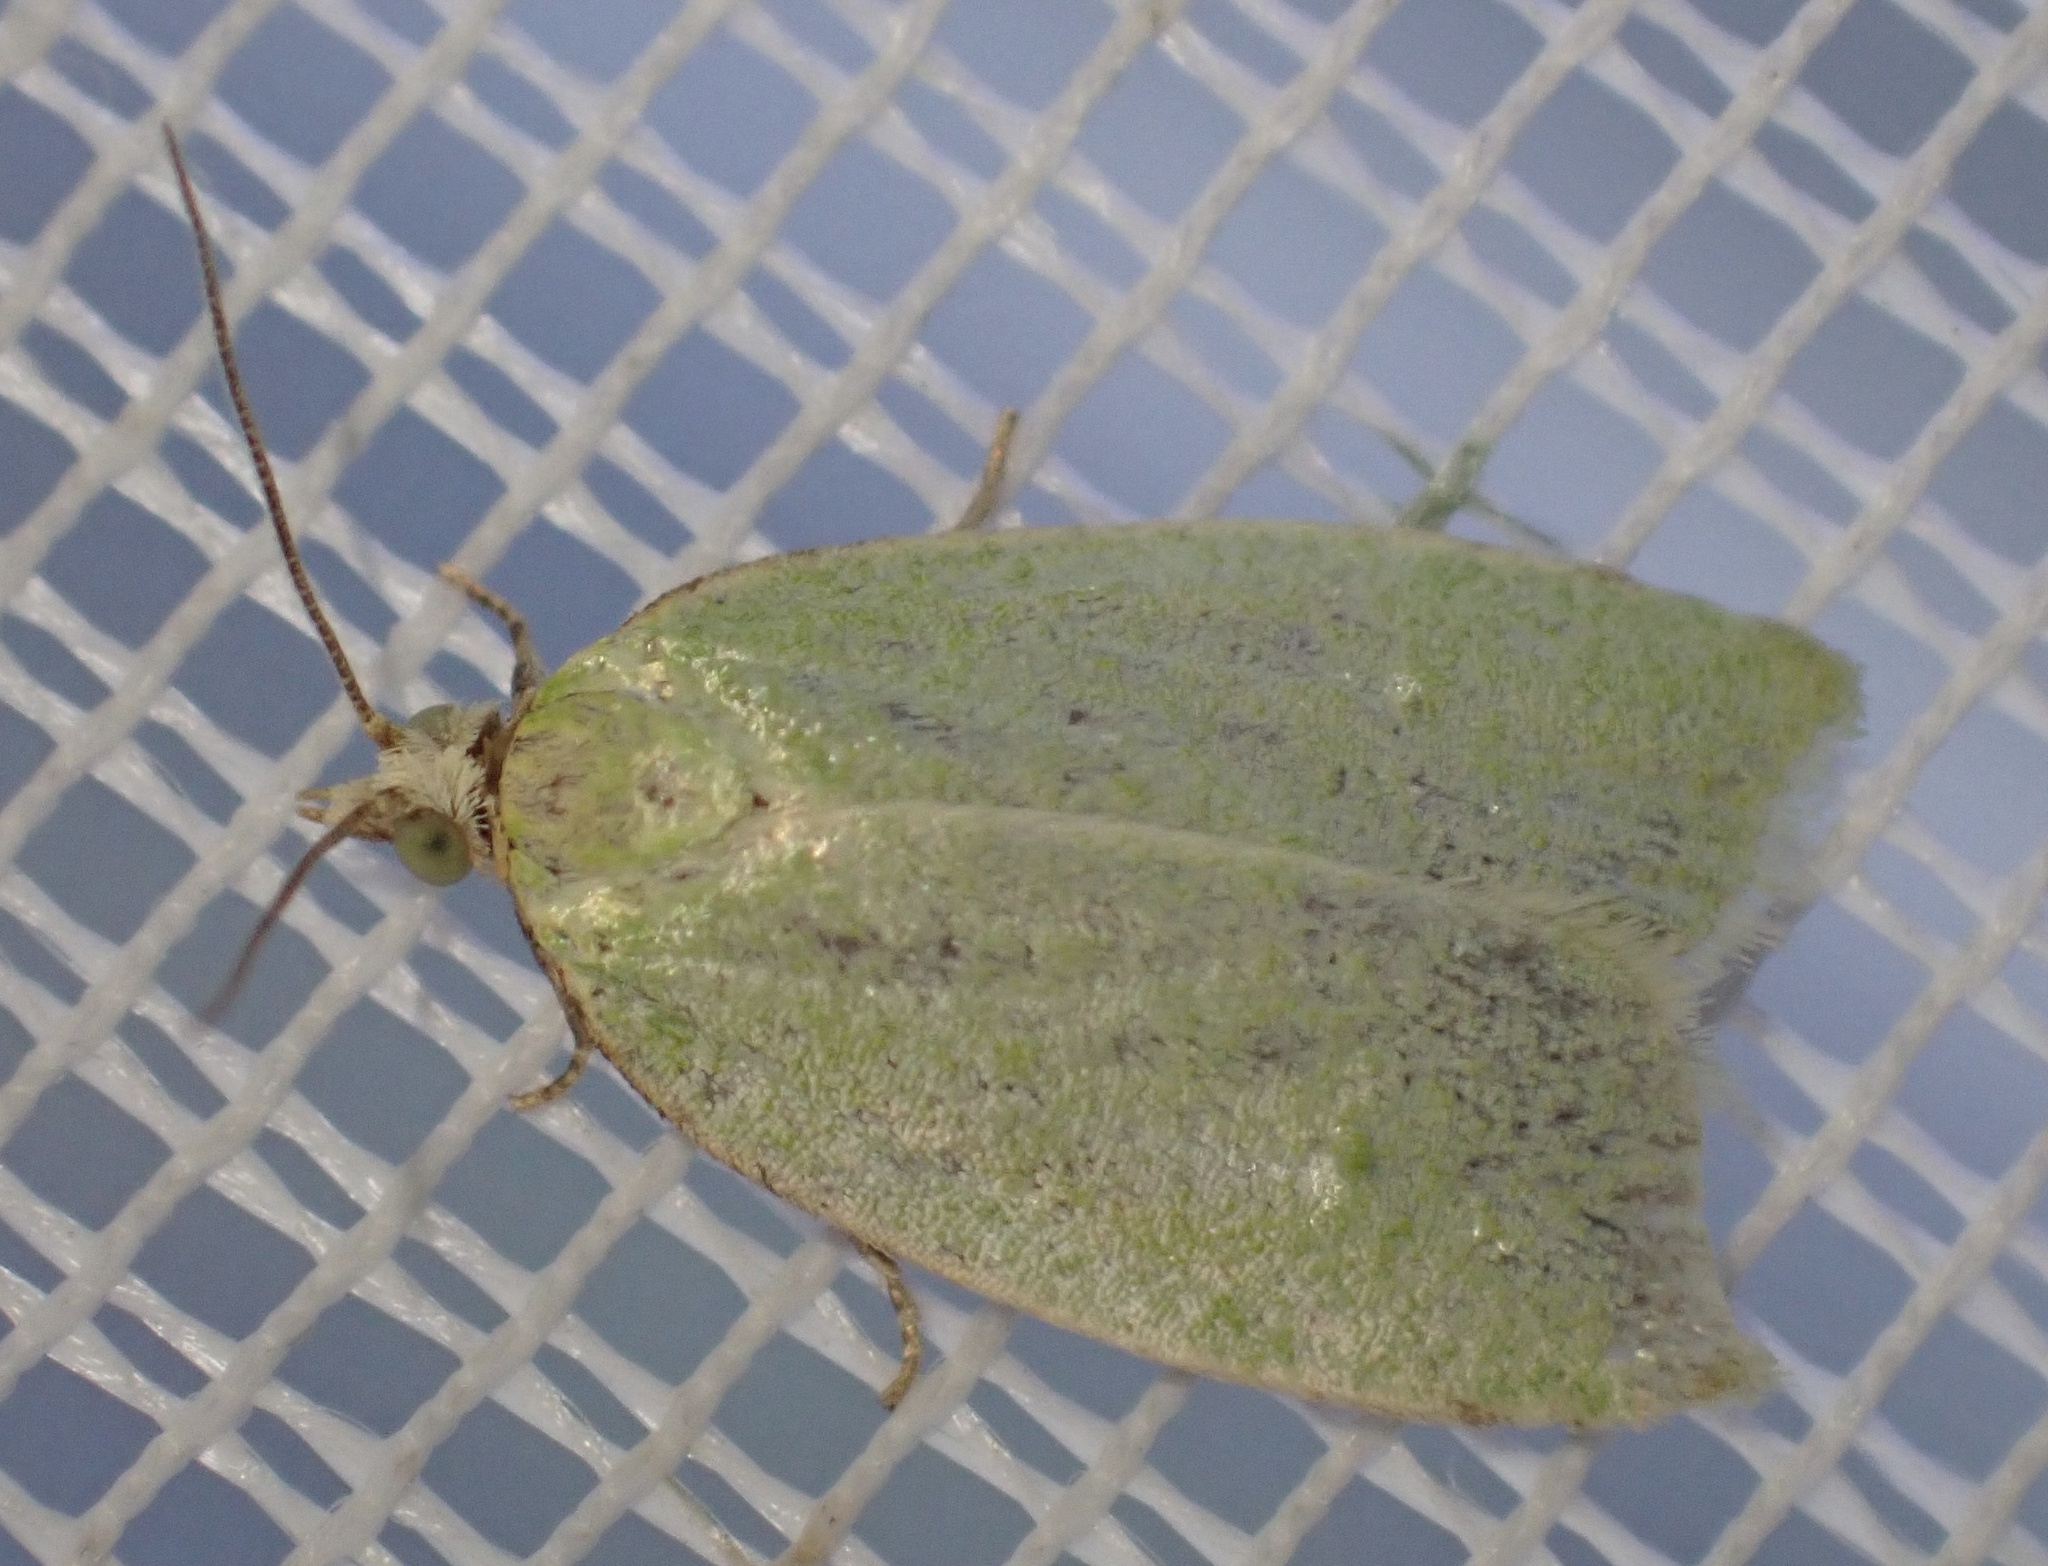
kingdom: Animalia
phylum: Arthropoda
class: Insecta
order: Lepidoptera
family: Tortricidae
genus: Tortrix
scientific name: Tortrix viridana
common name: Green oak tortrix
